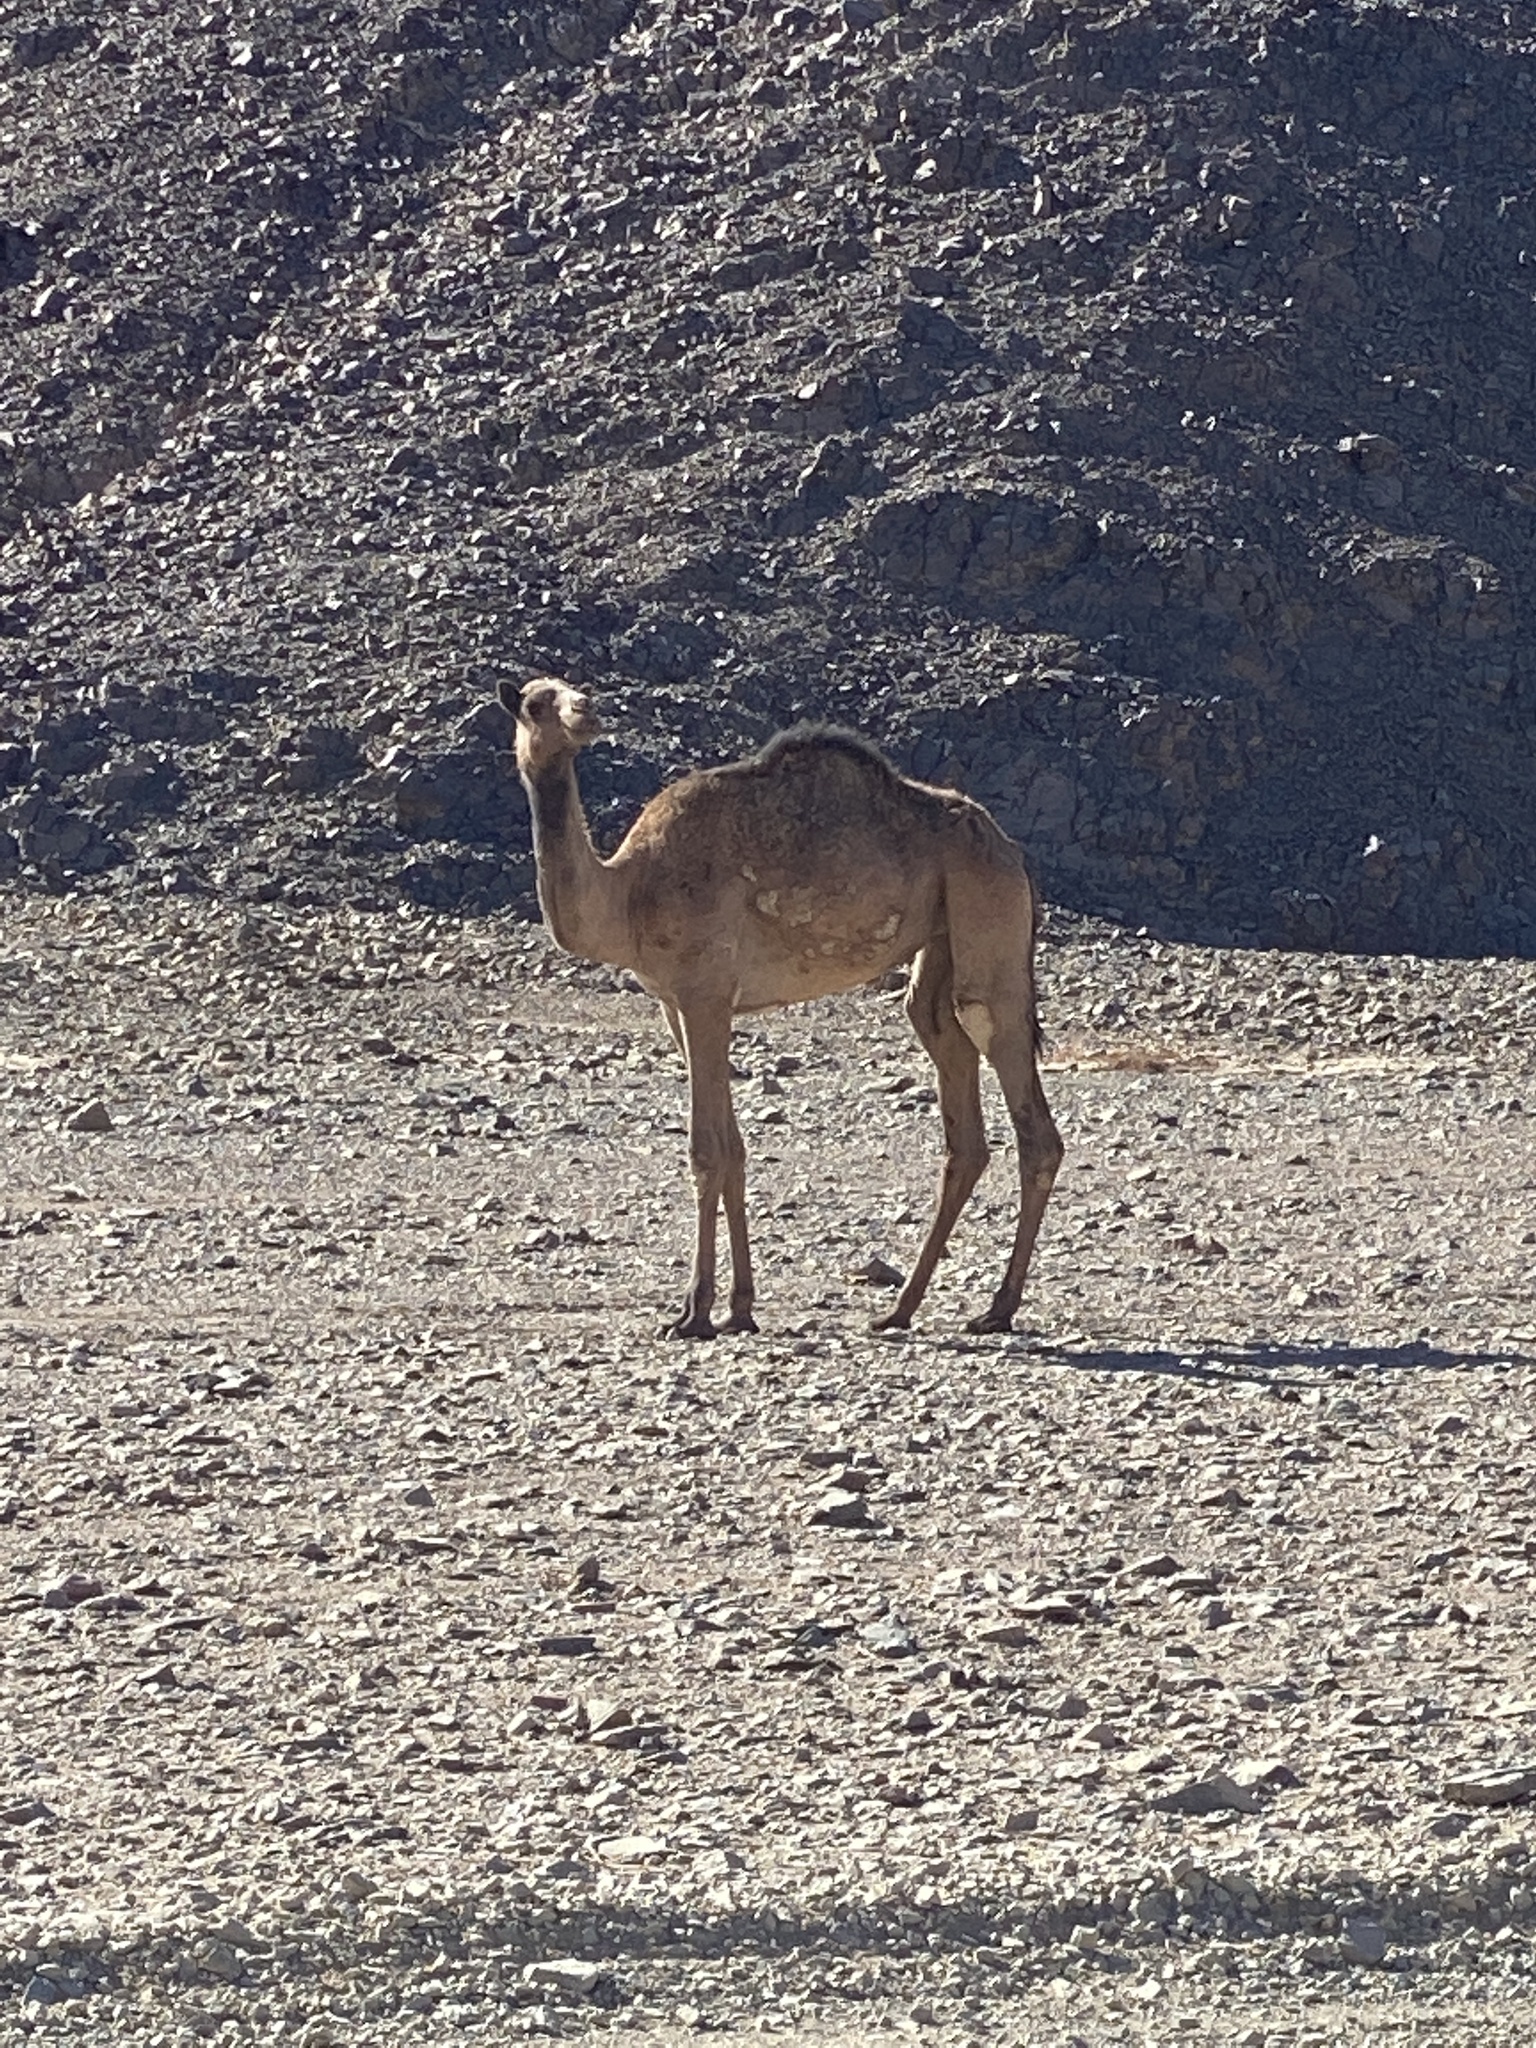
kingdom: Animalia
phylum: Chordata
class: Mammalia
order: Artiodactyla
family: Camelidae
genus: Camelus
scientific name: Camelus dromedarius
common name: One-humped camel
